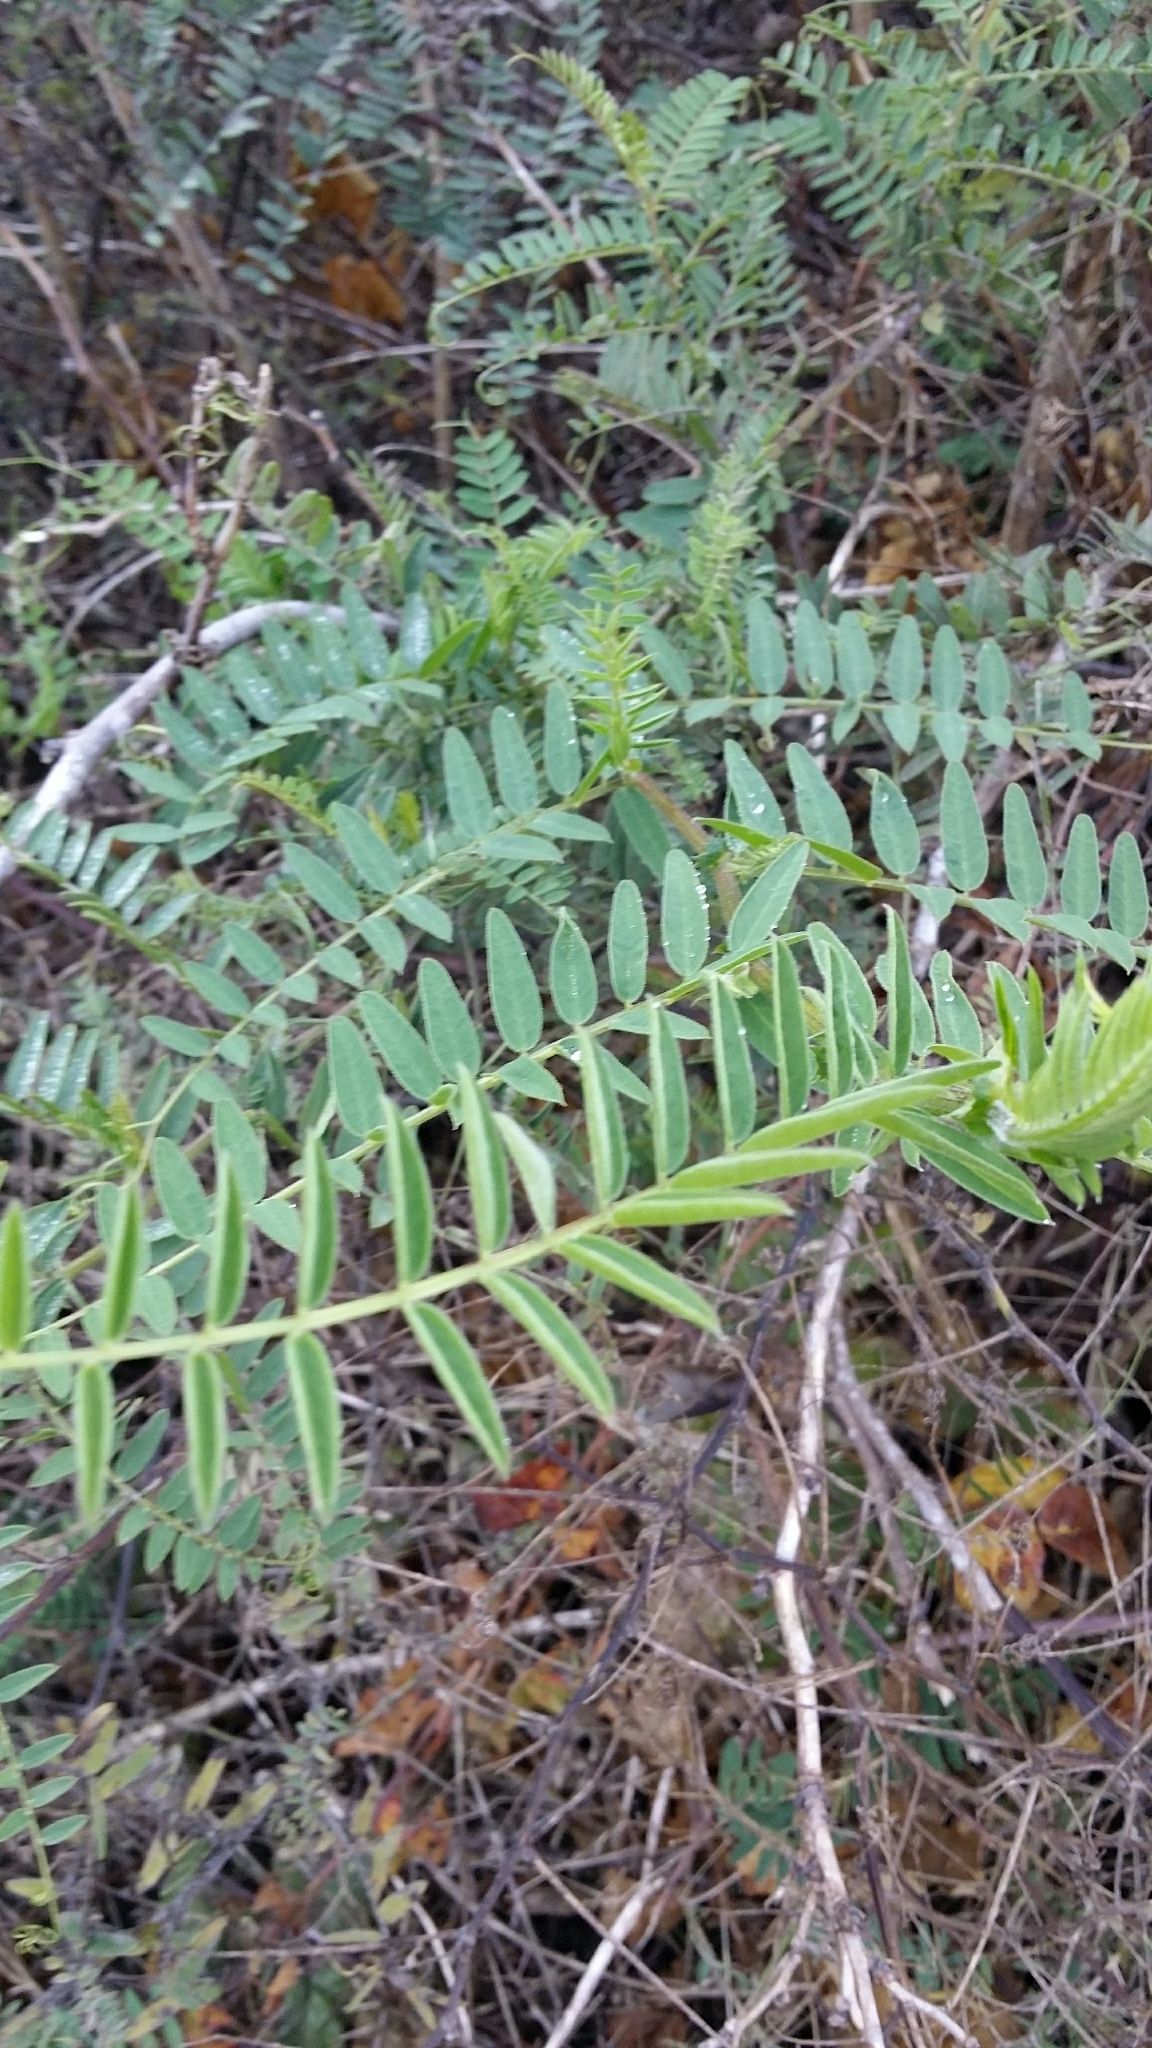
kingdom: Plantae
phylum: Tracheophyta
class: Magnoliopsida
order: Fabales
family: Fabaceae
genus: Vicia
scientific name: Vicia
